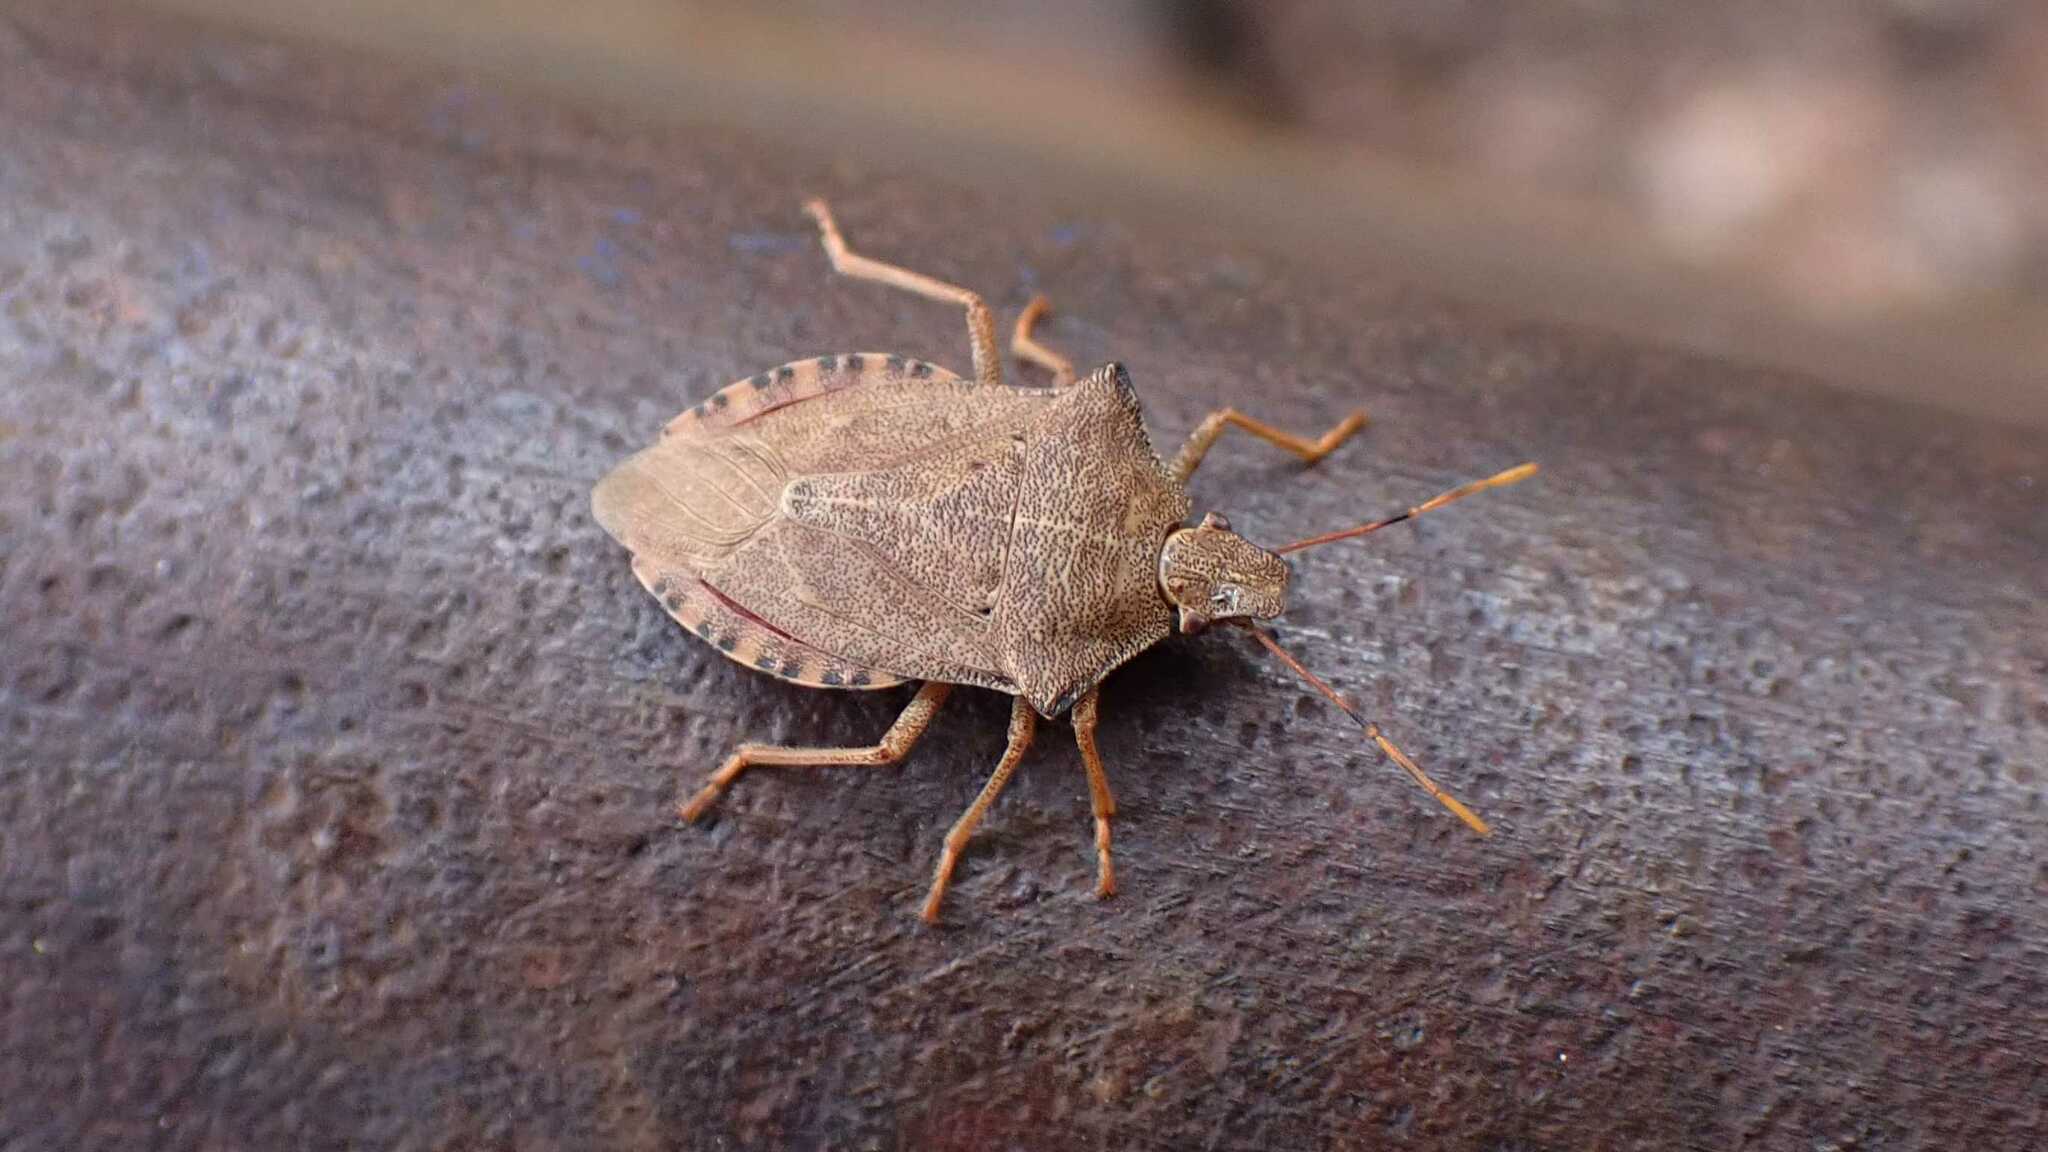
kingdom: Animalia
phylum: Arthropoda
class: Insecta
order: Hemiptera
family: Pentatomidae
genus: Arma
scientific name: Arma custos
